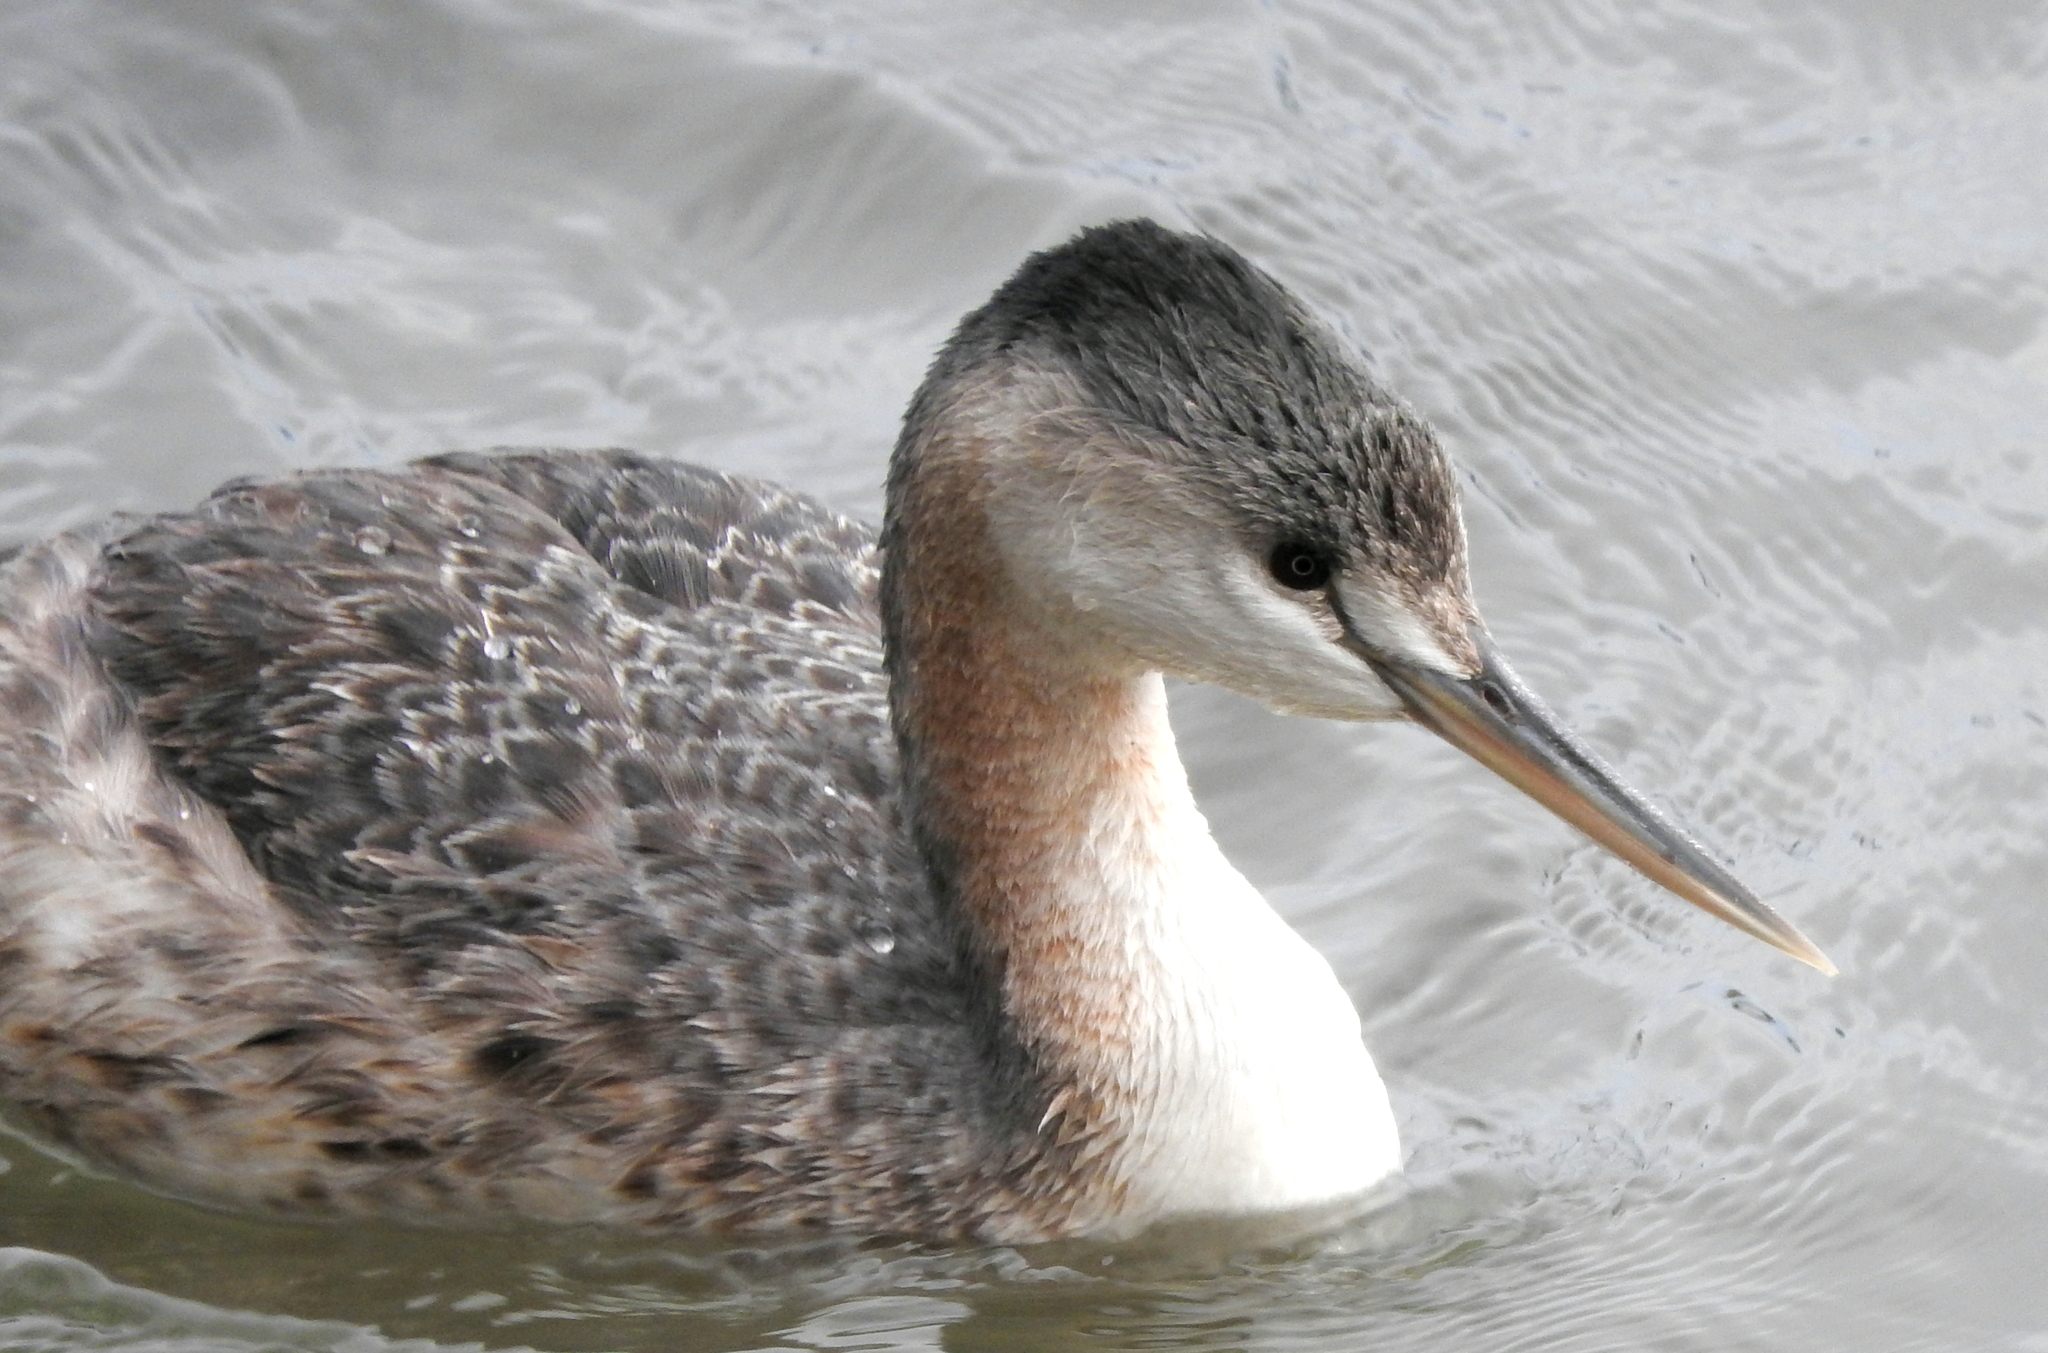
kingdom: Animalia
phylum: Chordata
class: Aves
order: Podicipediformes
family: Podicipedidae
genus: Podiceps
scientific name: Podiceps major
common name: Great grebe
